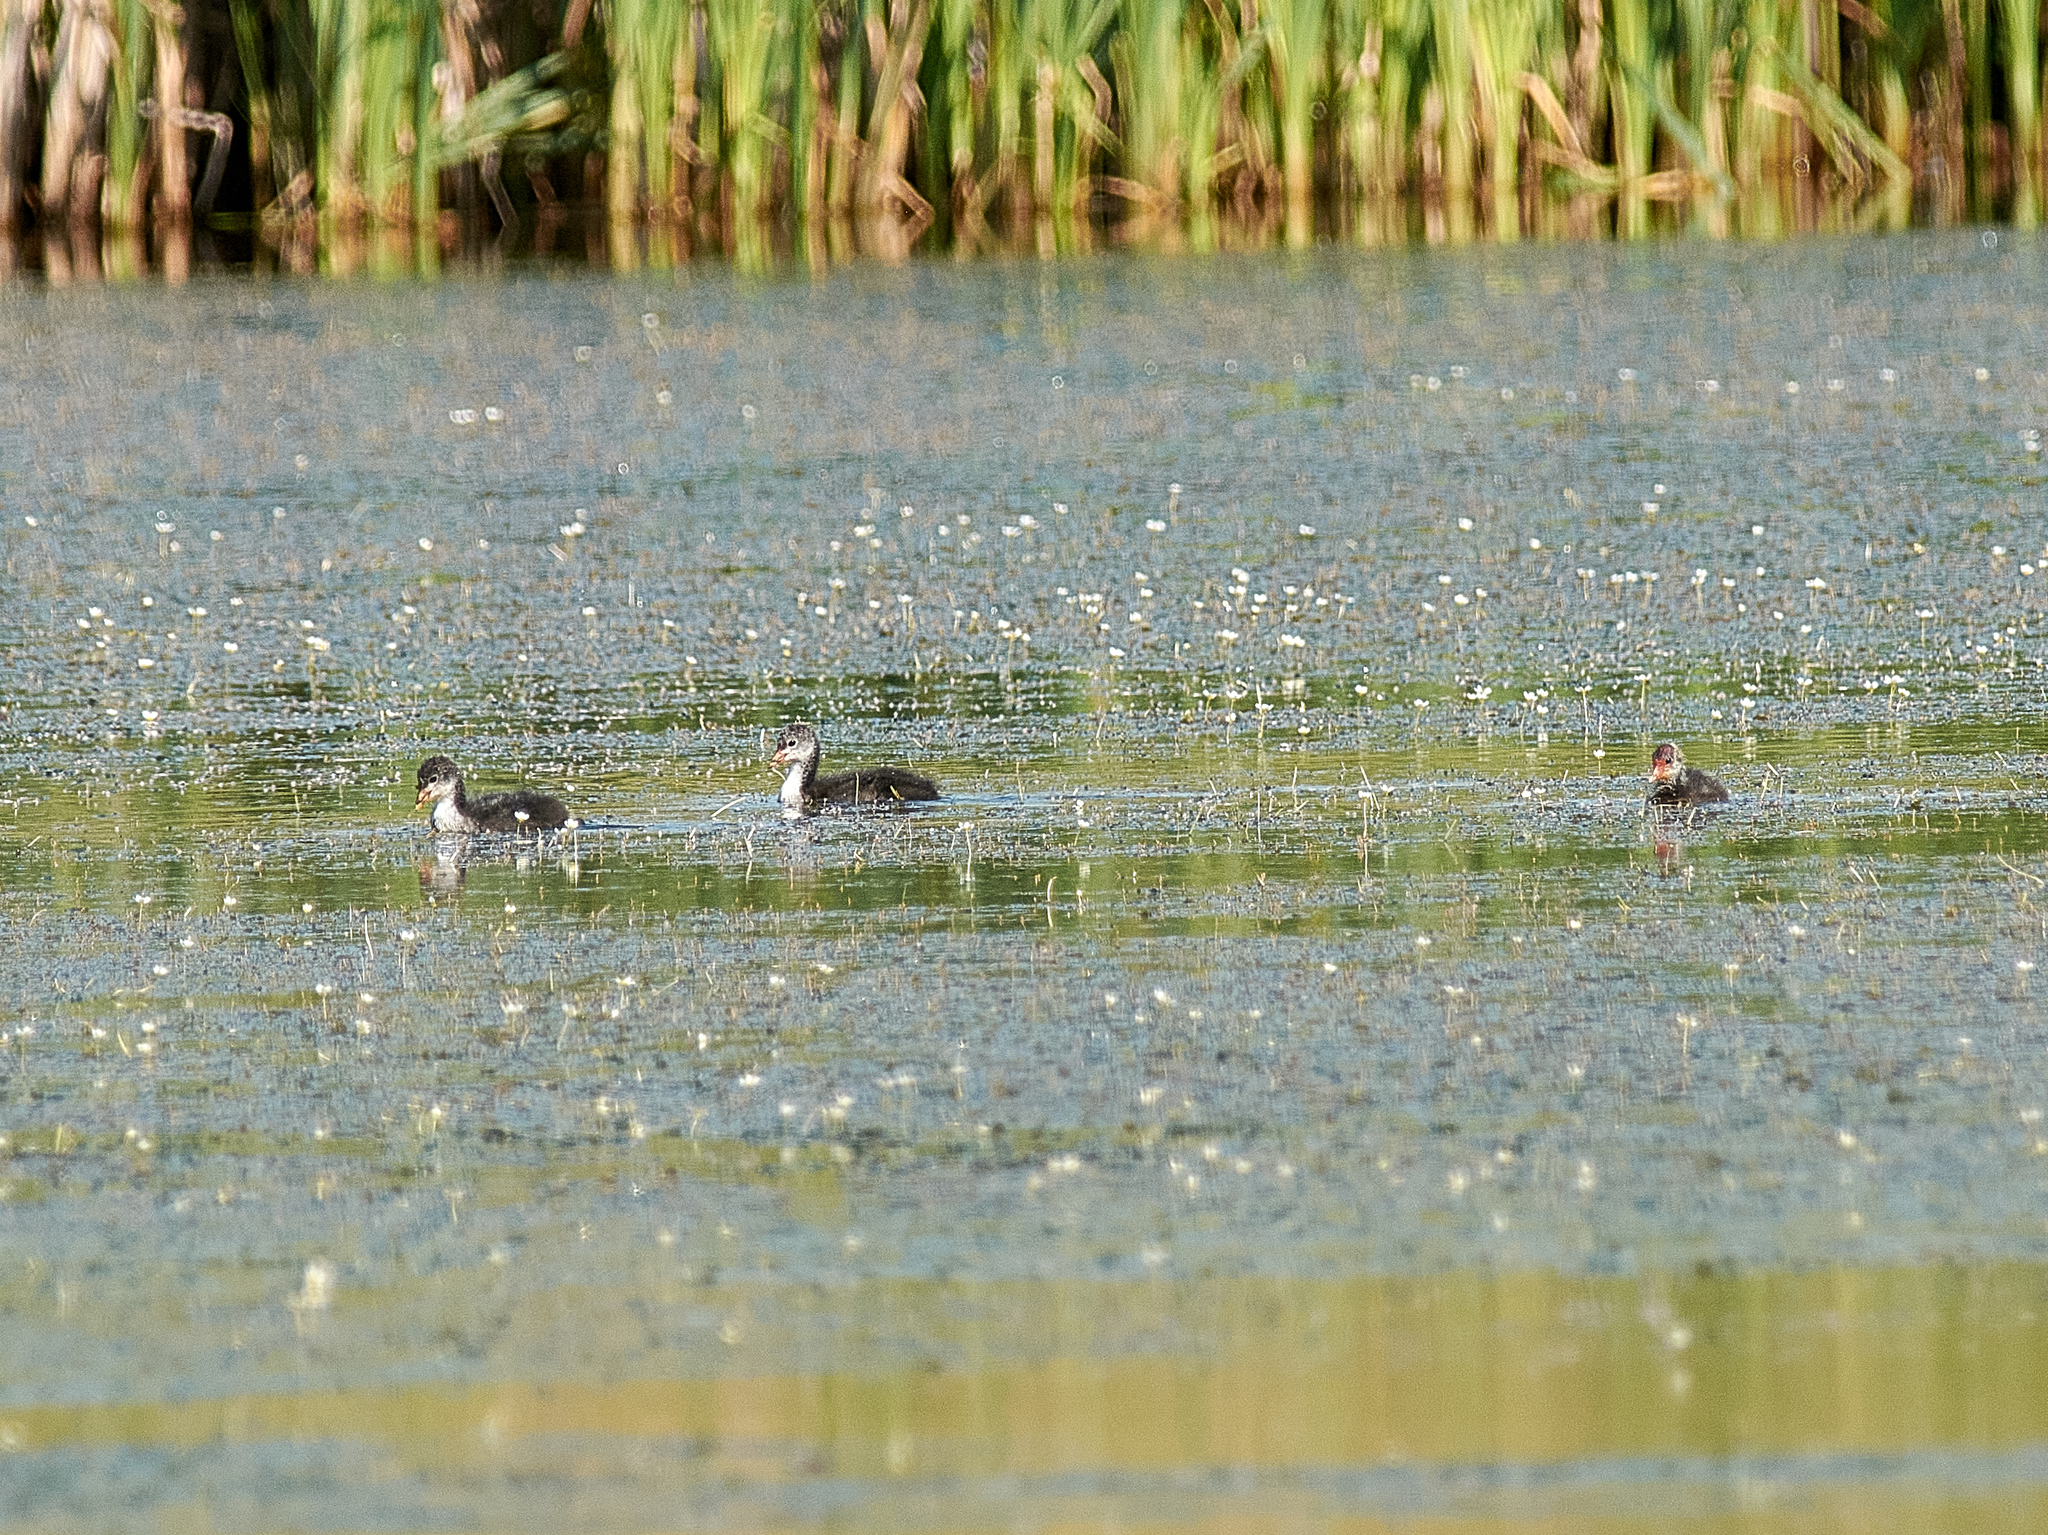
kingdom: Animalia
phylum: Chordata
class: Aves
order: Gruiformes
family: Rallidae
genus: Fulica
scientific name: Fulica atra
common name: Eurasian coot
